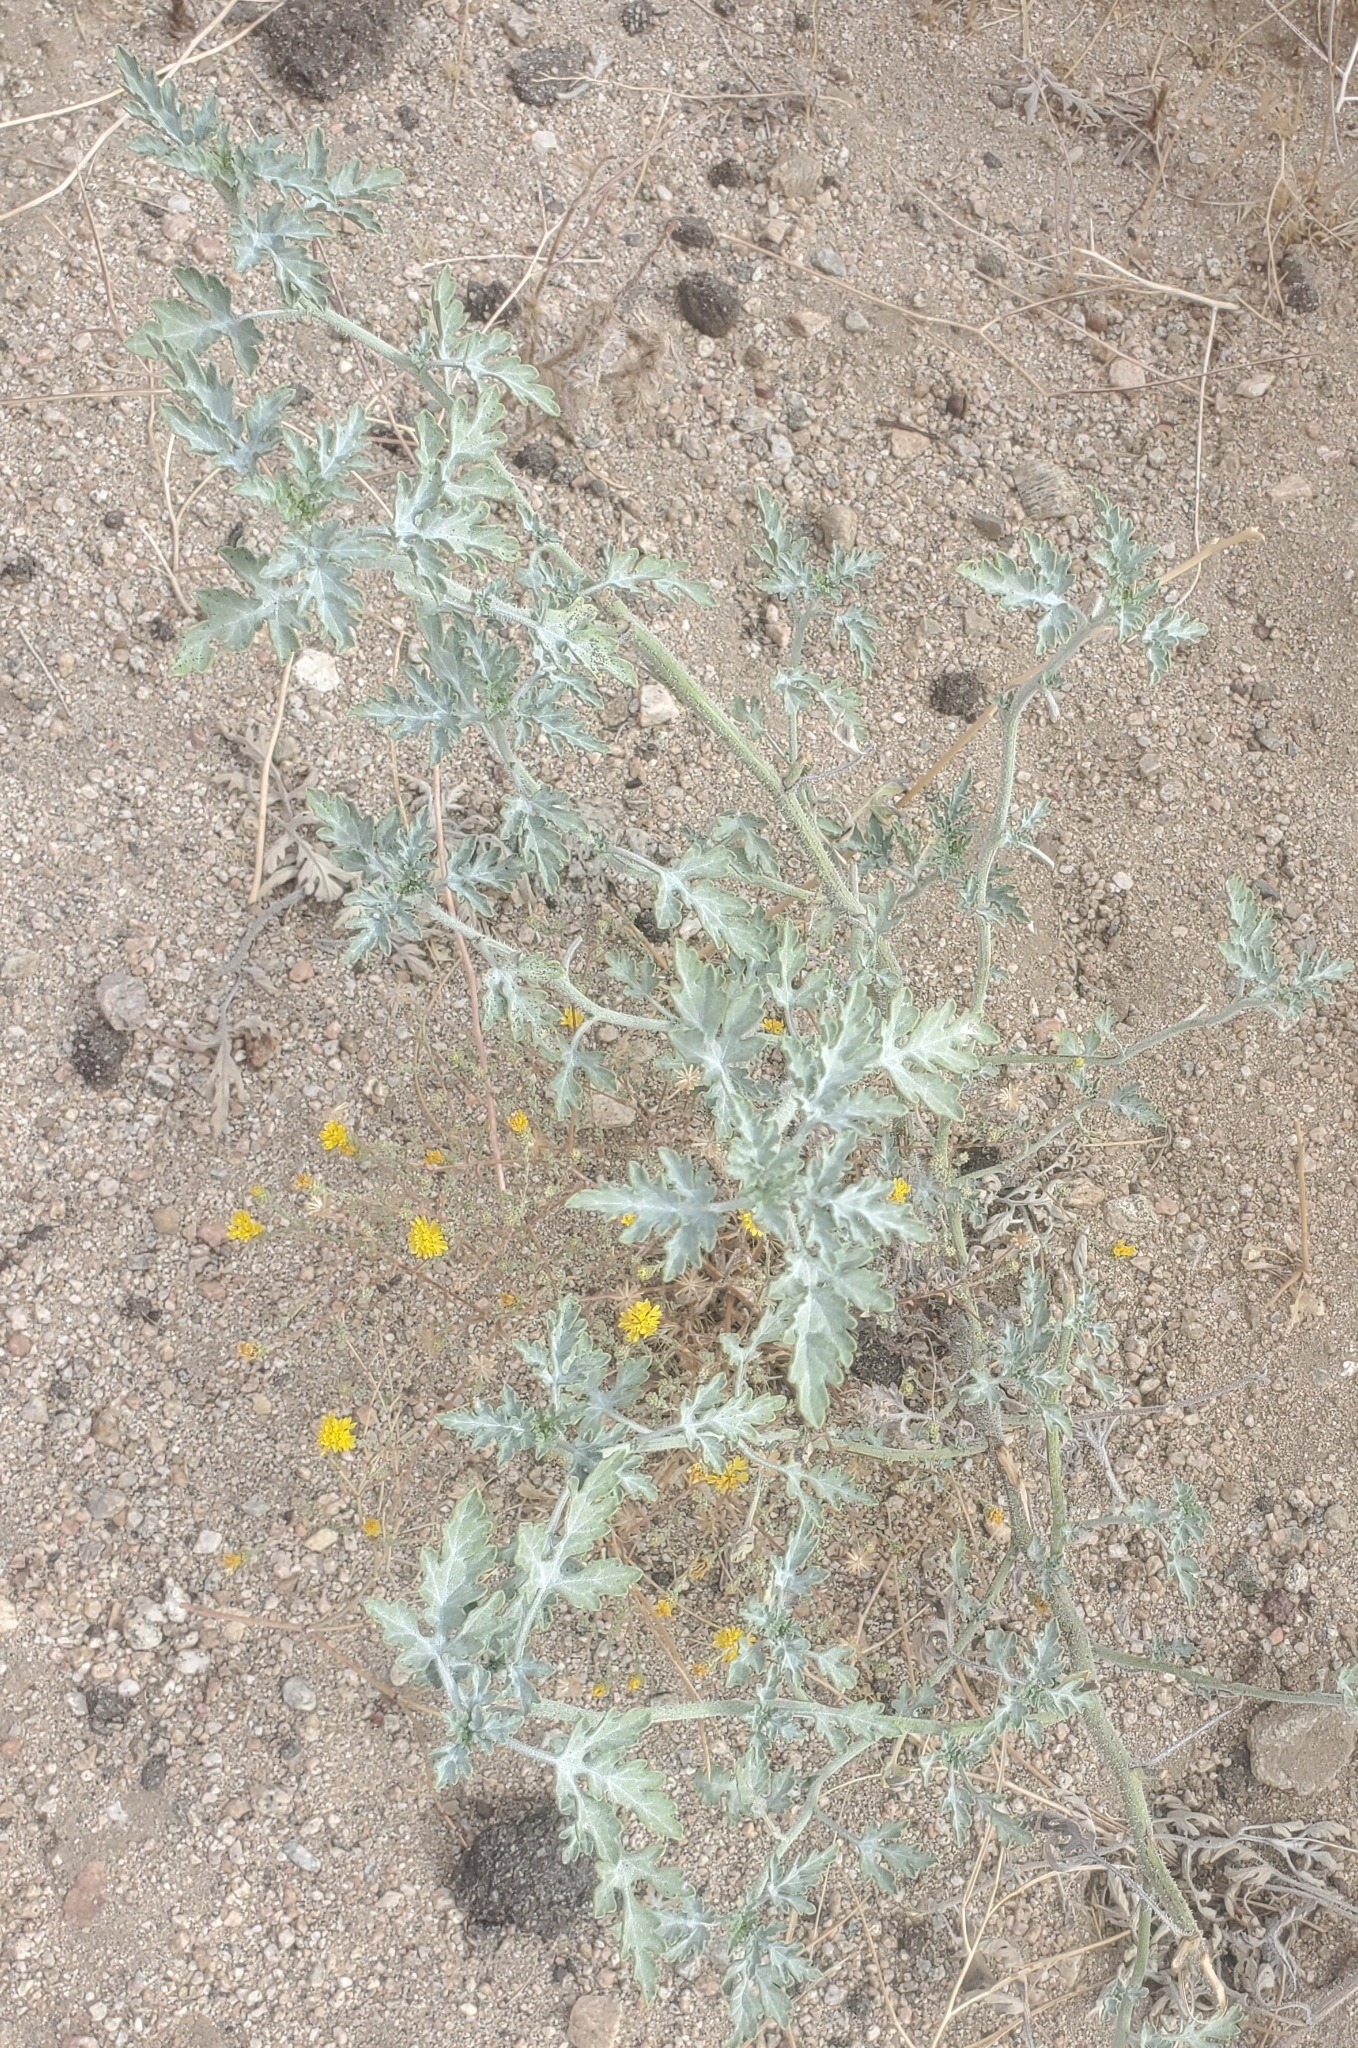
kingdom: Plantae
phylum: Tracheophyta
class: Magnoliopsida
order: Asterales
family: Asteraceae
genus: Ambrosia
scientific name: Ambrosia acanthicarpa
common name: Hooker's bur ragweed
